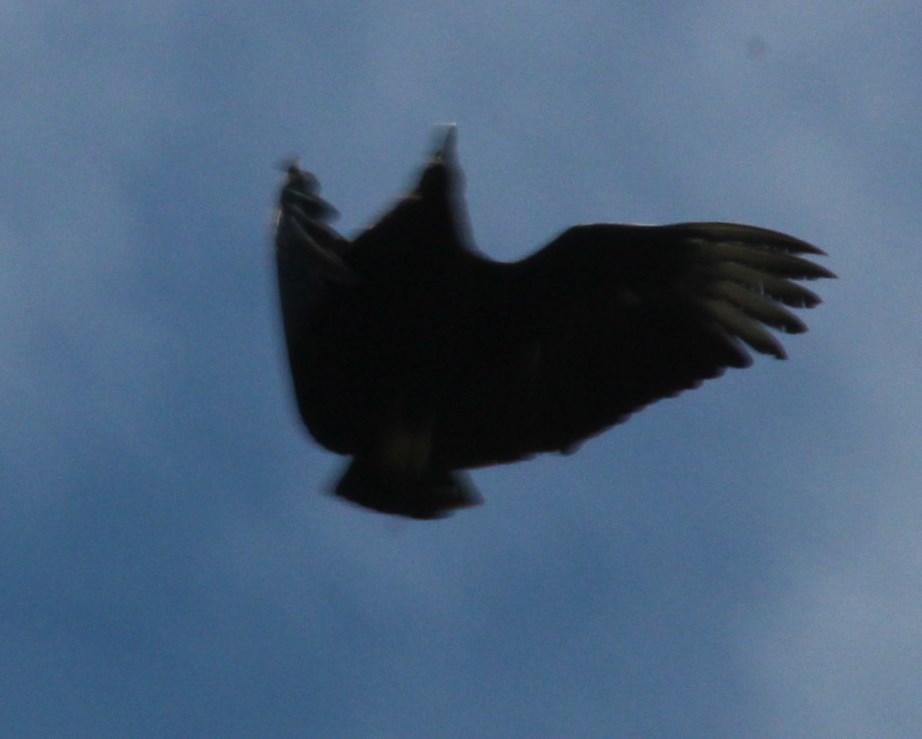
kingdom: Animalia
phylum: Chordata
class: Aves
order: Accipitriformes
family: Cathartidae
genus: Coragyps
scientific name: Coragyps atratus
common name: Black vulture
